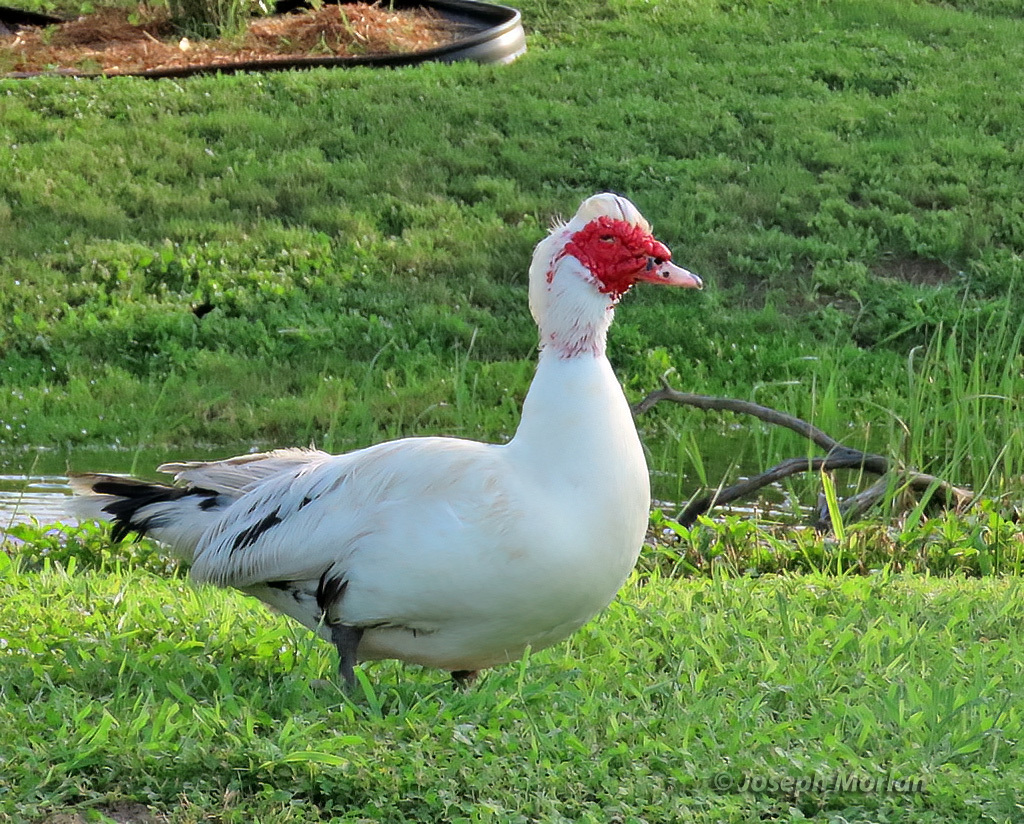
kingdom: Animalia
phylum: Chordata
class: Aves
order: Anseriformes
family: Anatidae
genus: Cairina
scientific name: Cairina moschata
